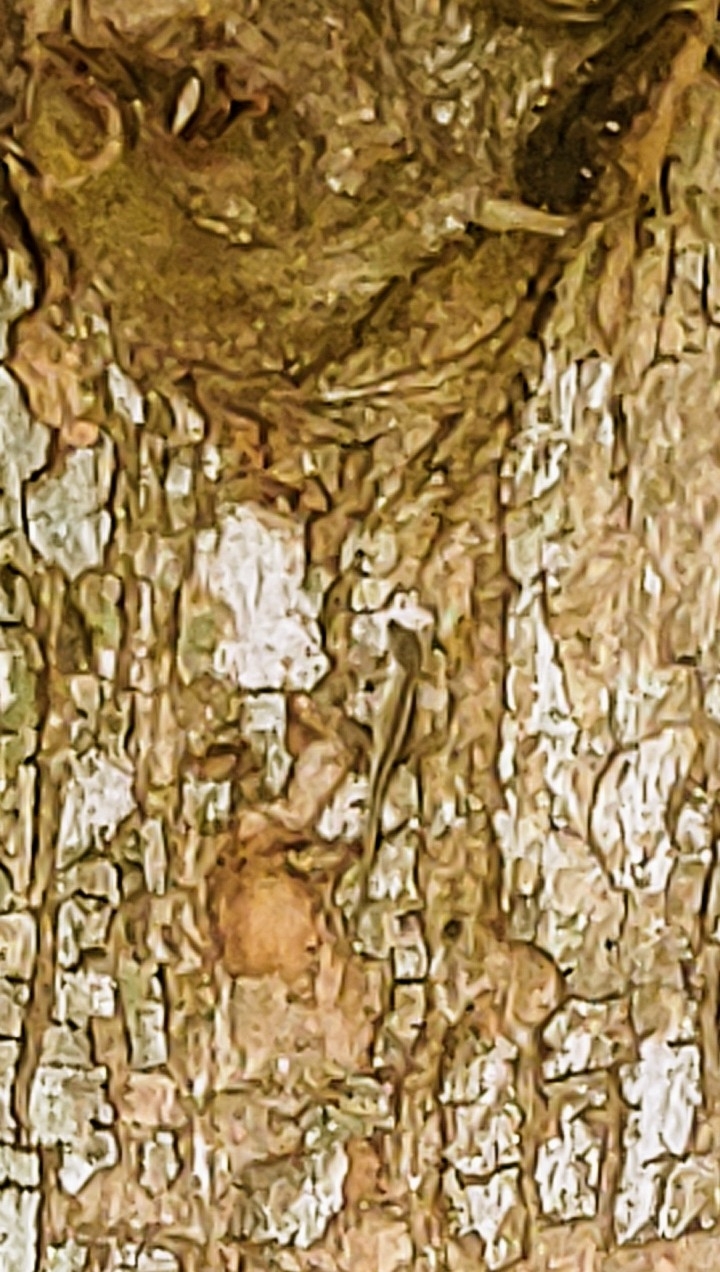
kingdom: Animalia
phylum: Chordata
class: Squamata
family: Dactyloidae
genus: Anolis
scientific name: Anolis sagrei
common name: Brown anole
